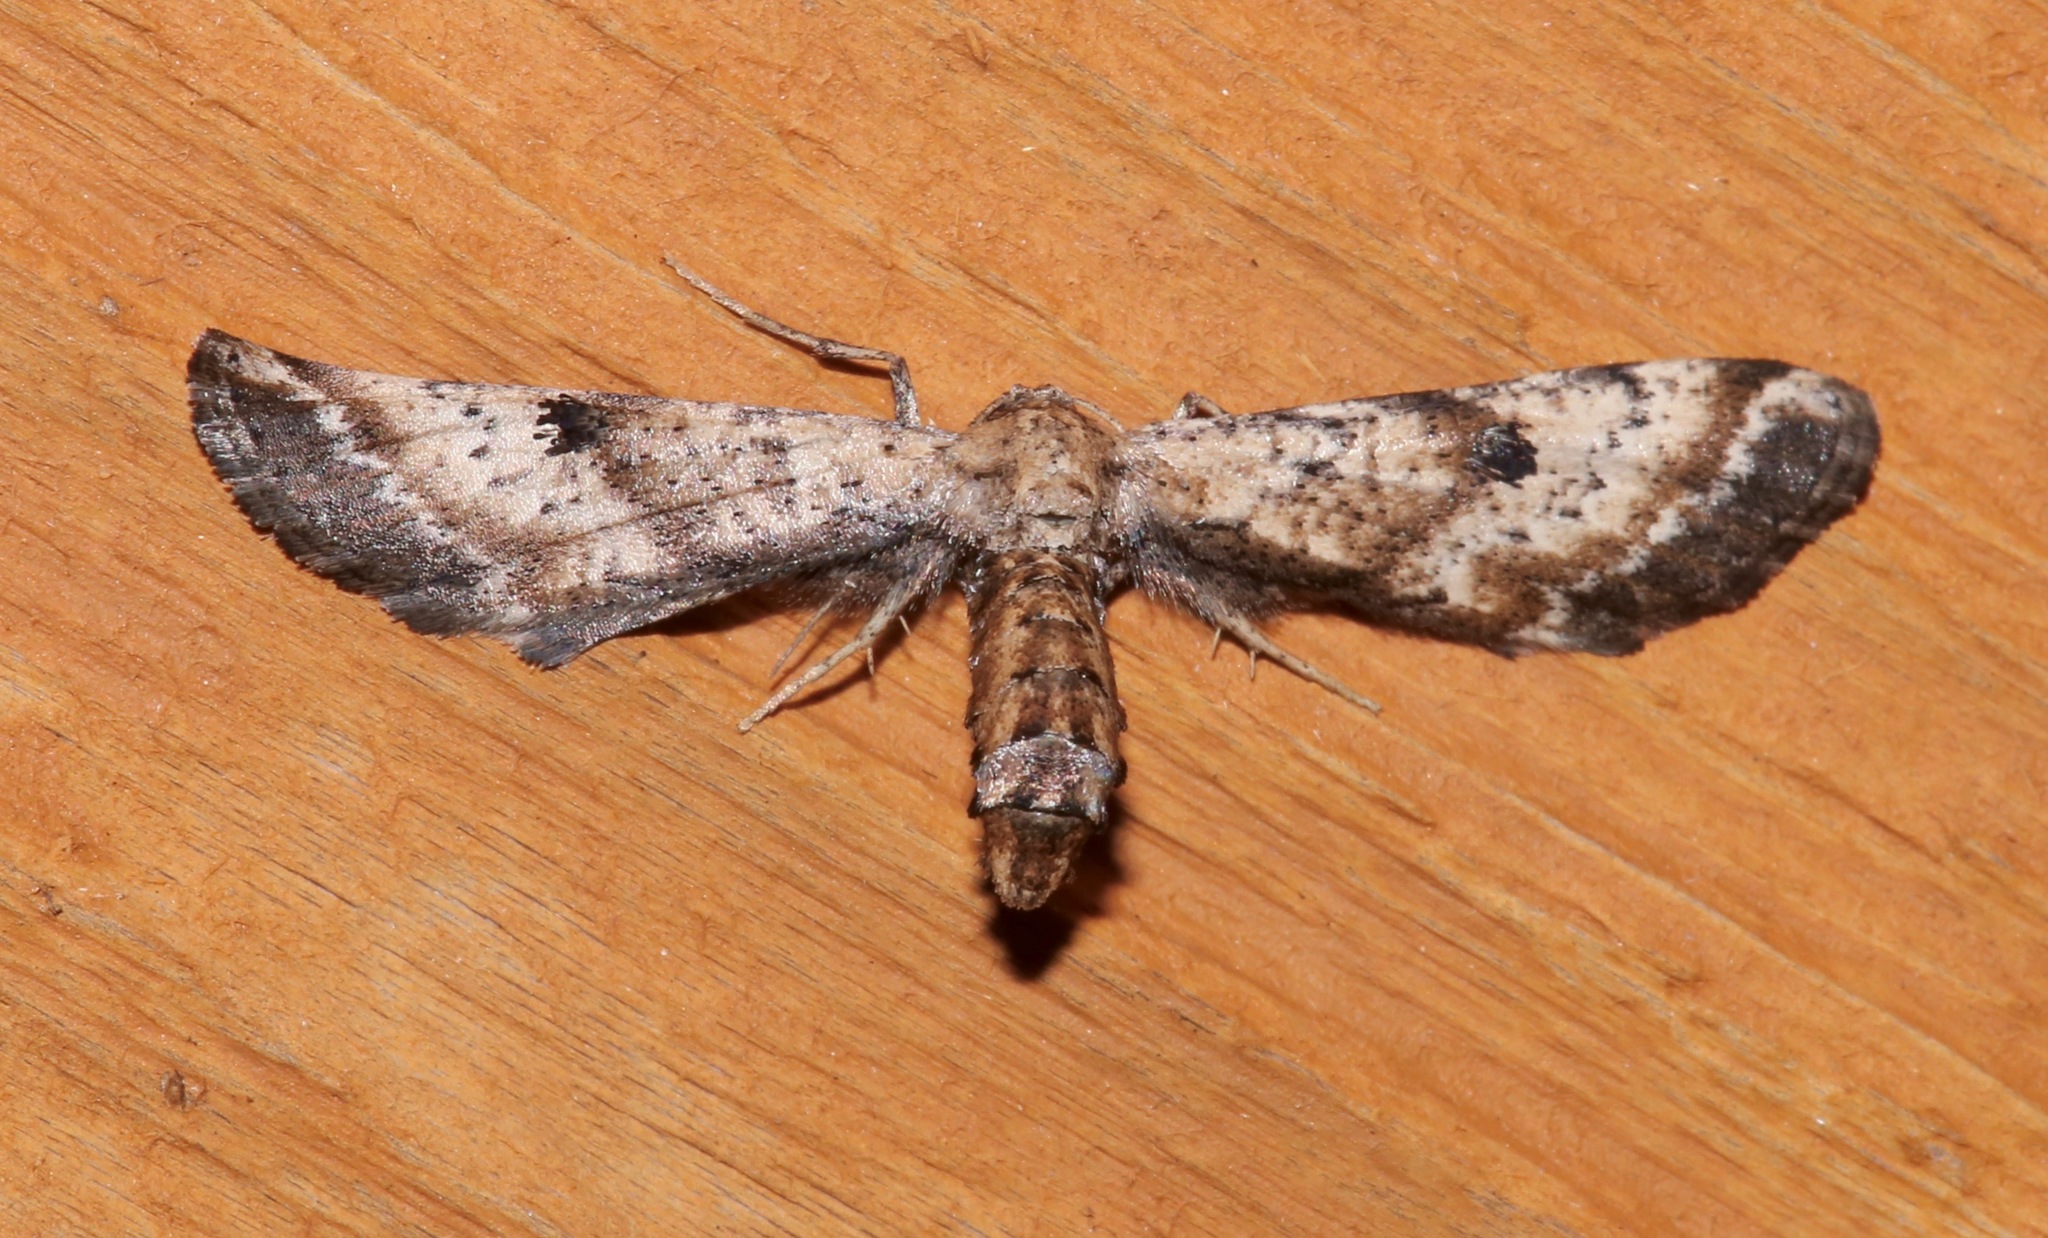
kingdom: Animalia
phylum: Arthropoda
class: Insecta
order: Lepidoptera
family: Geometridae
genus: Tornos
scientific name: Tornos scolopacinaria
